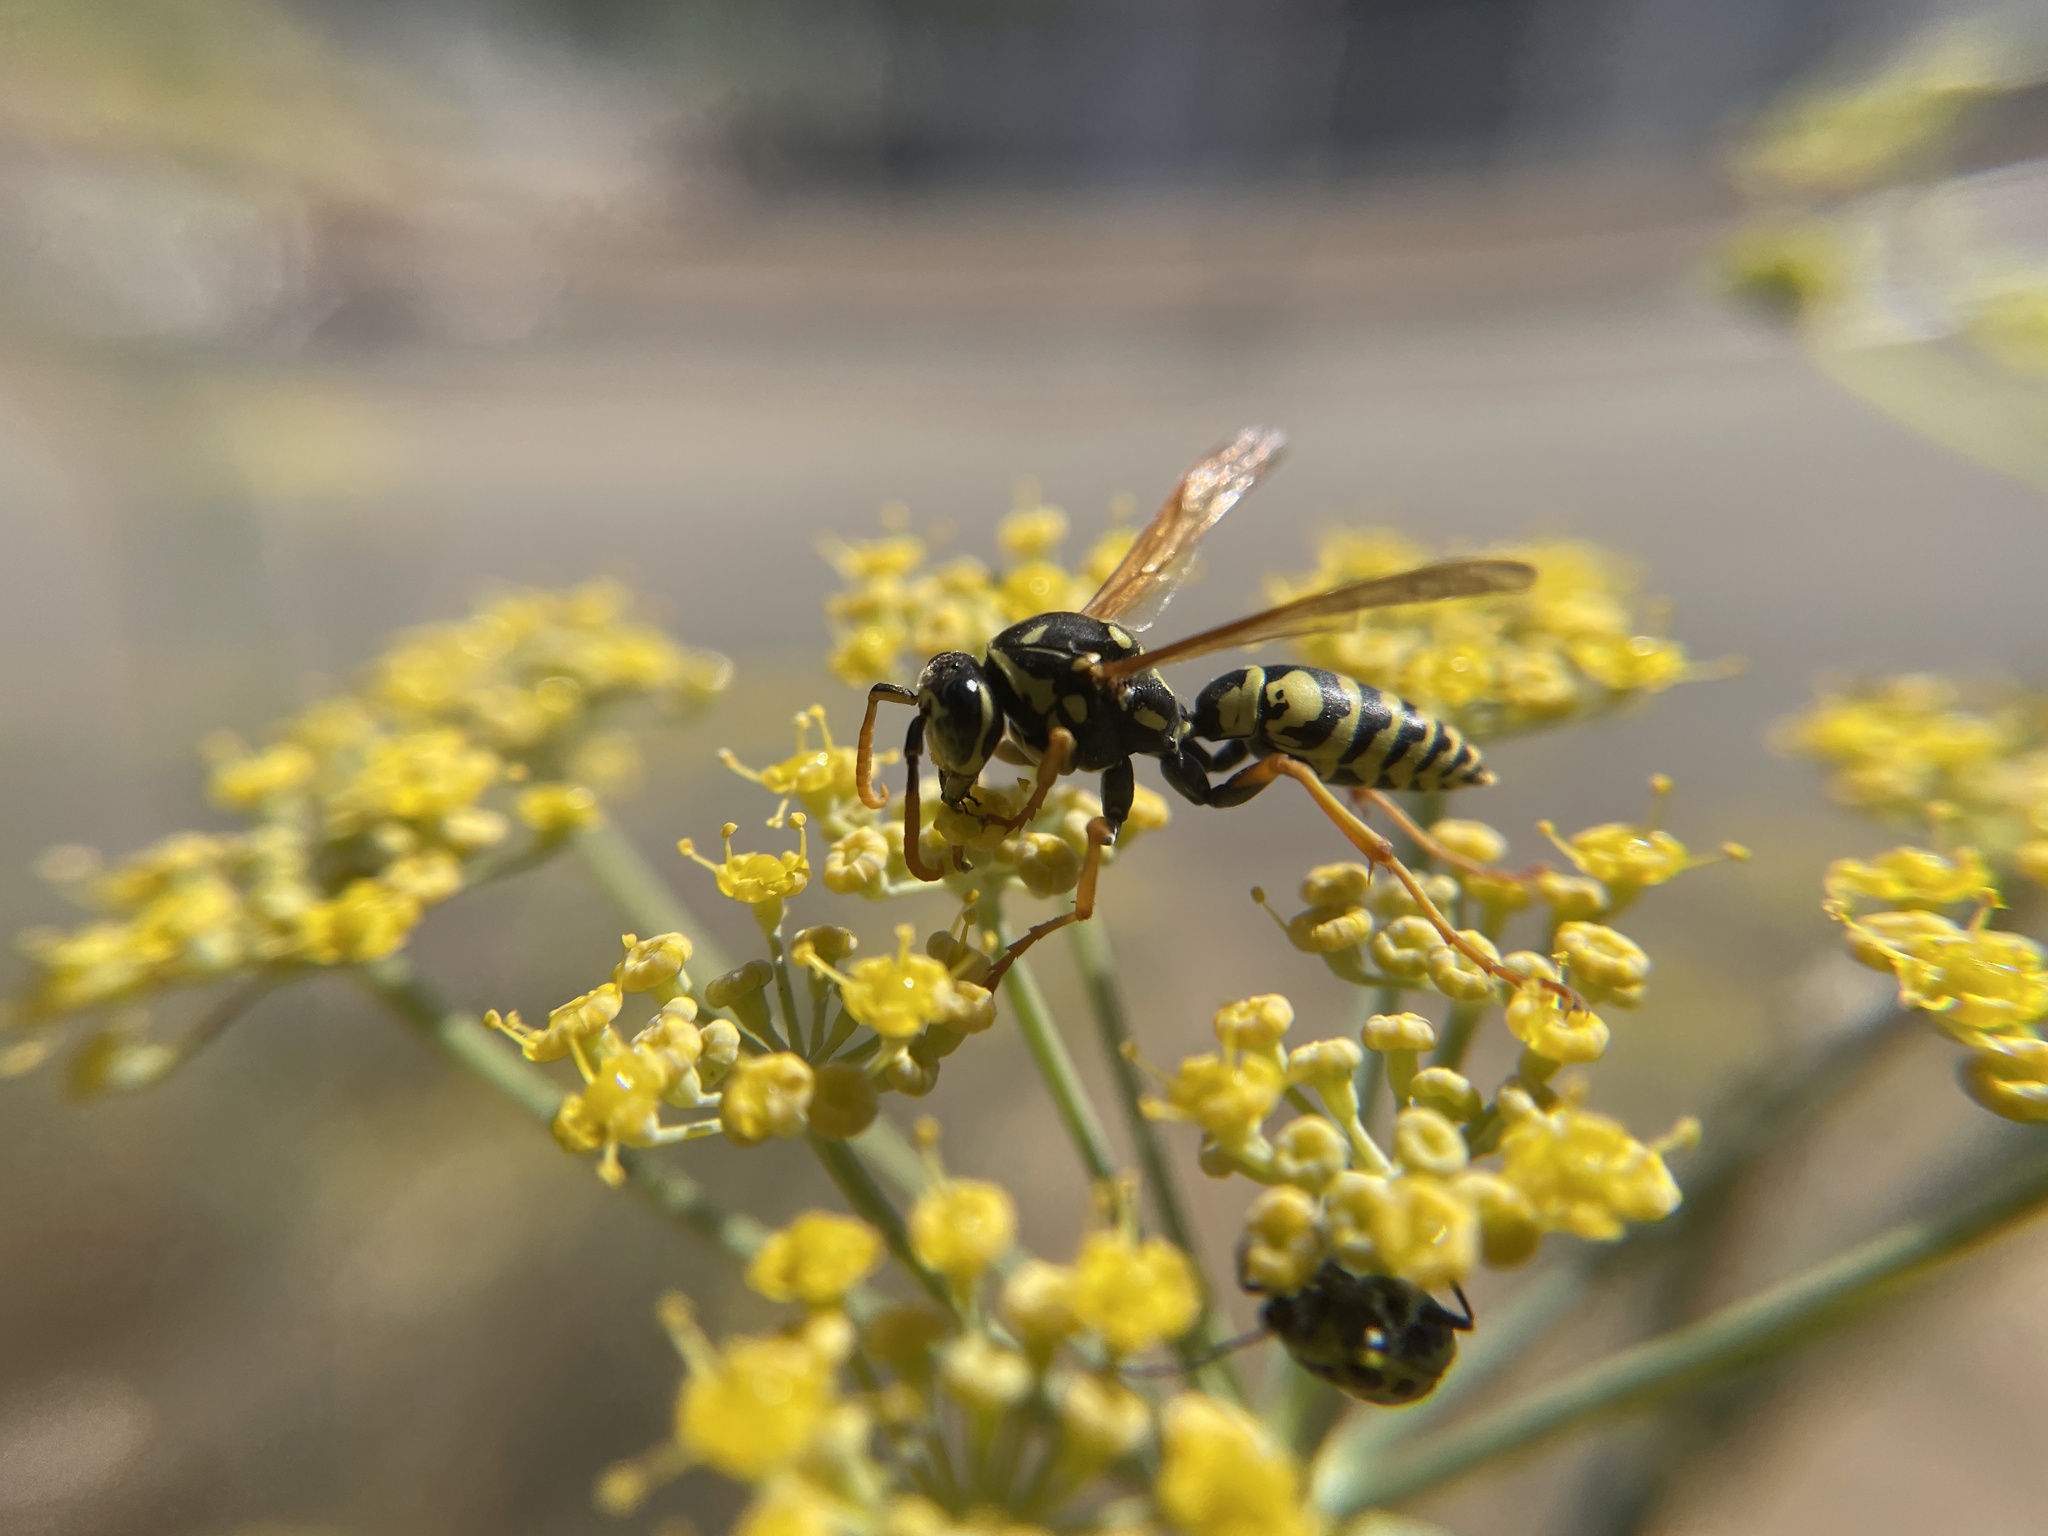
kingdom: Animalia
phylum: Arthropoda
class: Insecta
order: Hymenoptera
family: Eumenidae
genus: Polistes
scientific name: Polistes dominula
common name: Paper wasp
